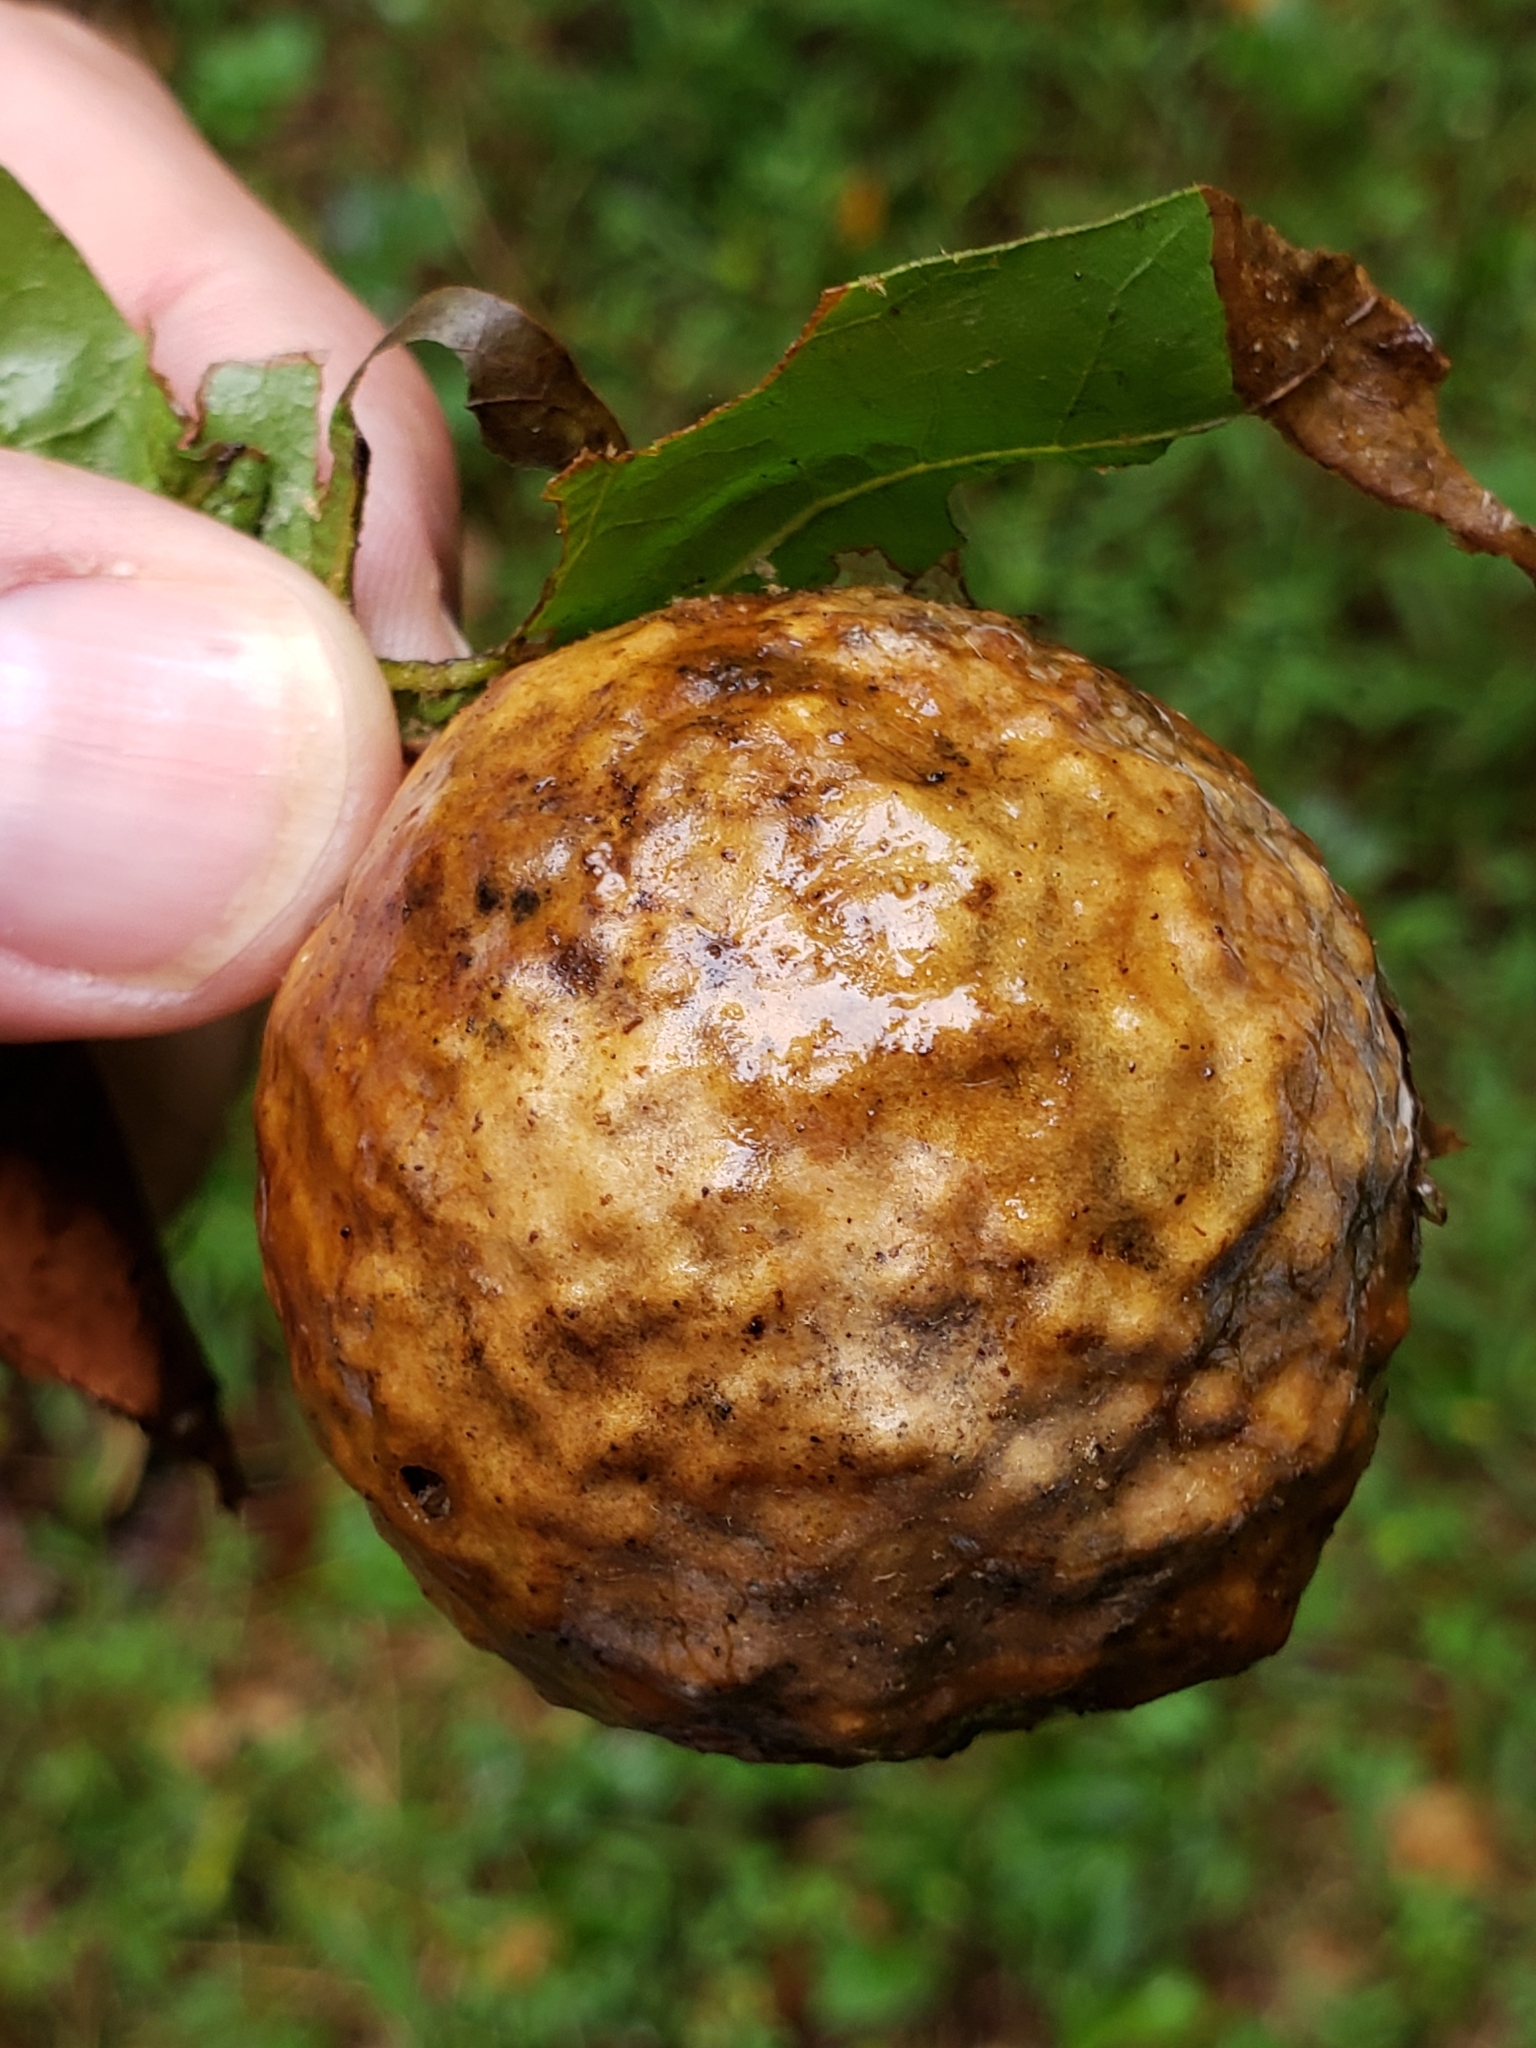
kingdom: Animalia
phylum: Arthropoda
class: Insecta
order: Hymenoptera
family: Cynipidae
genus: Amphibolips
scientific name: Amphibolips
